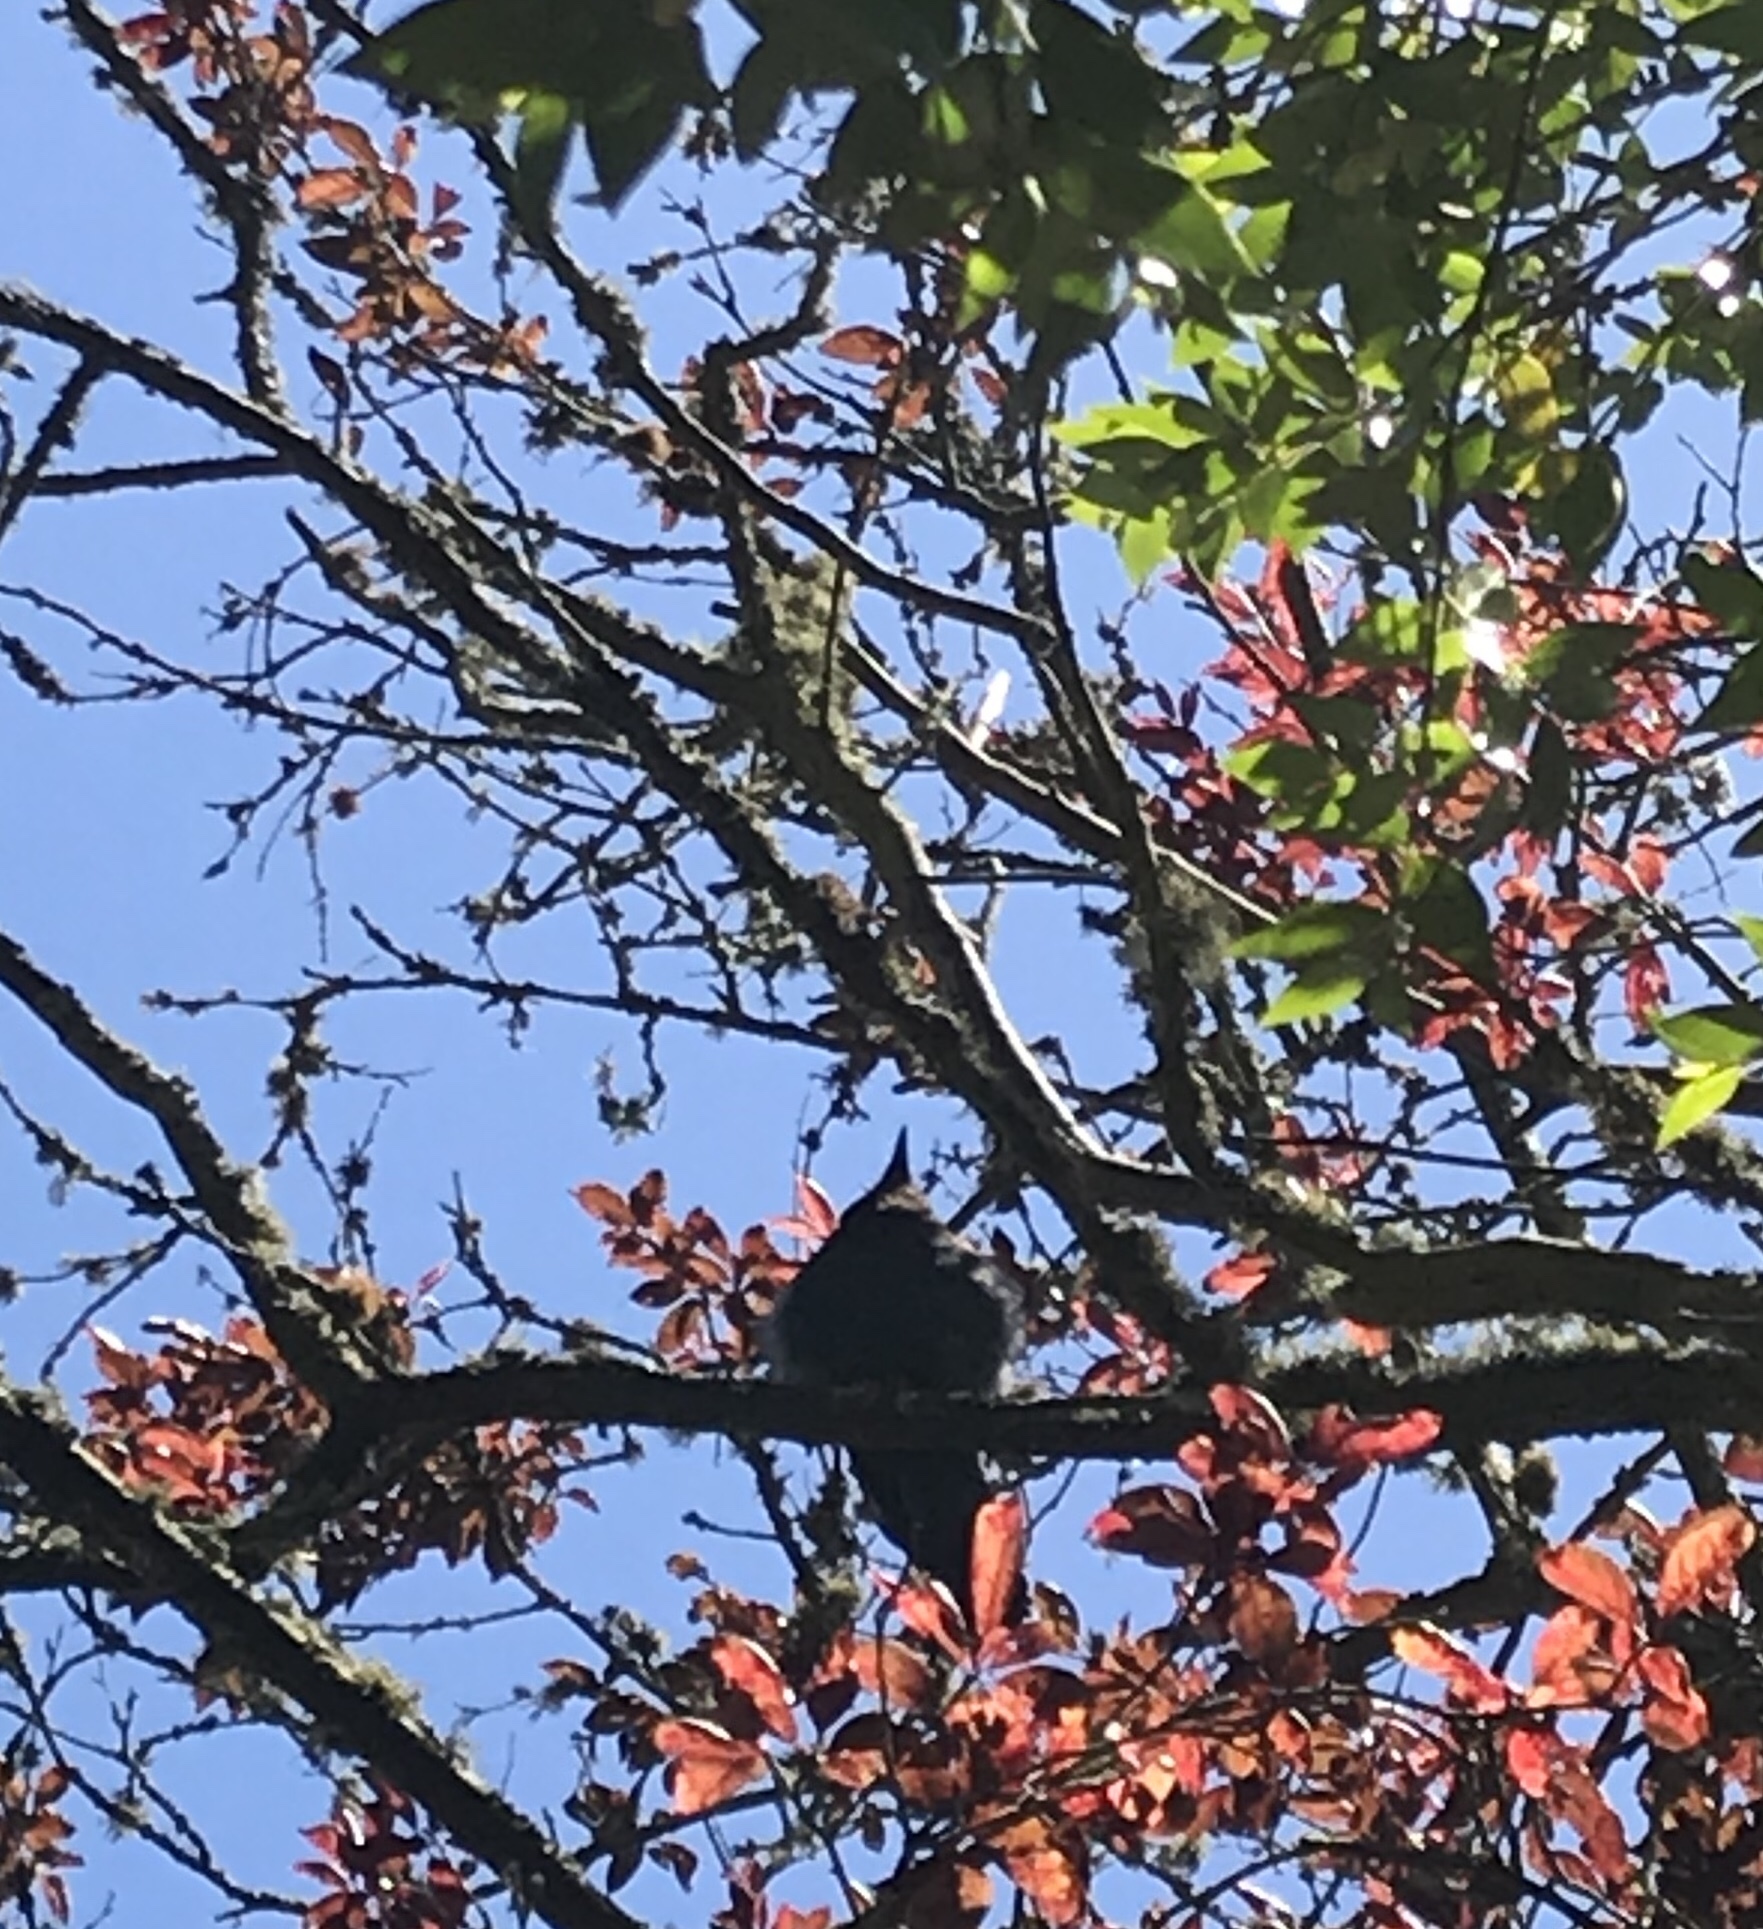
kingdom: Animalia
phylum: Chordata
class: Aves
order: Passeriformes
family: Corvidae
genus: Cyanocitta
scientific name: Cyanocitta stelleri
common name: Steller's jay
